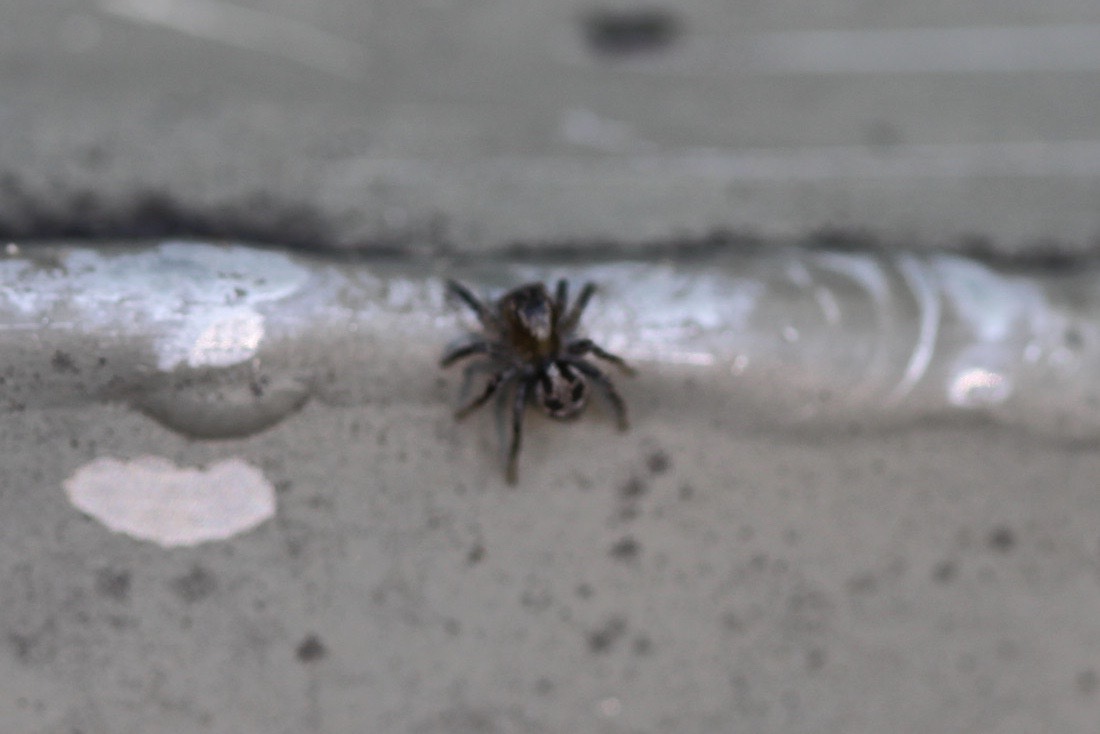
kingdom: Animalia
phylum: Arthropoda
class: Arachnida
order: Araneae
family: Salticidae
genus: Naphrys
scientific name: Naphrys pulex
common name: Flea jumping spider
